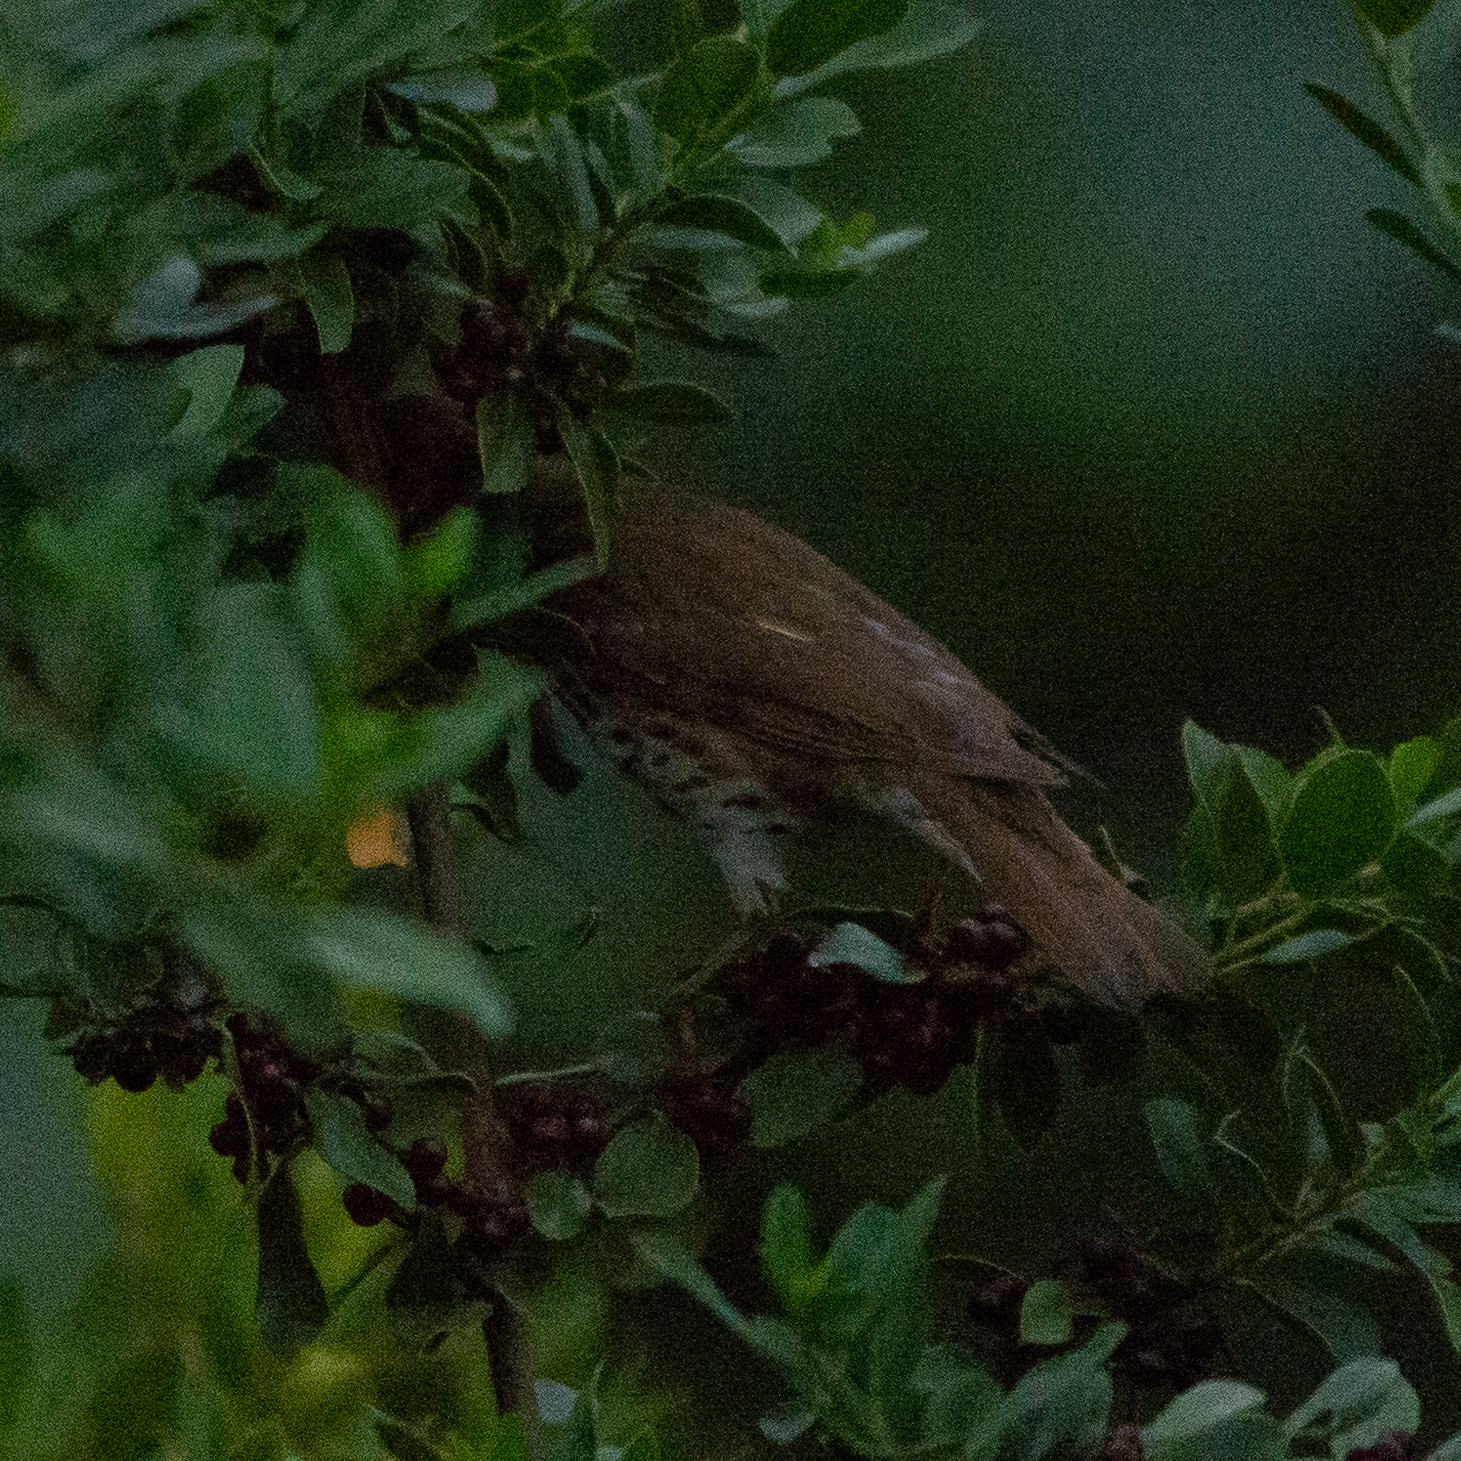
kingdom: Animalia
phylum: Chordata
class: Aves
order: Passeriformes
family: Turdidae
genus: Turdus
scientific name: Turdus philomelos
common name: Song thrush
